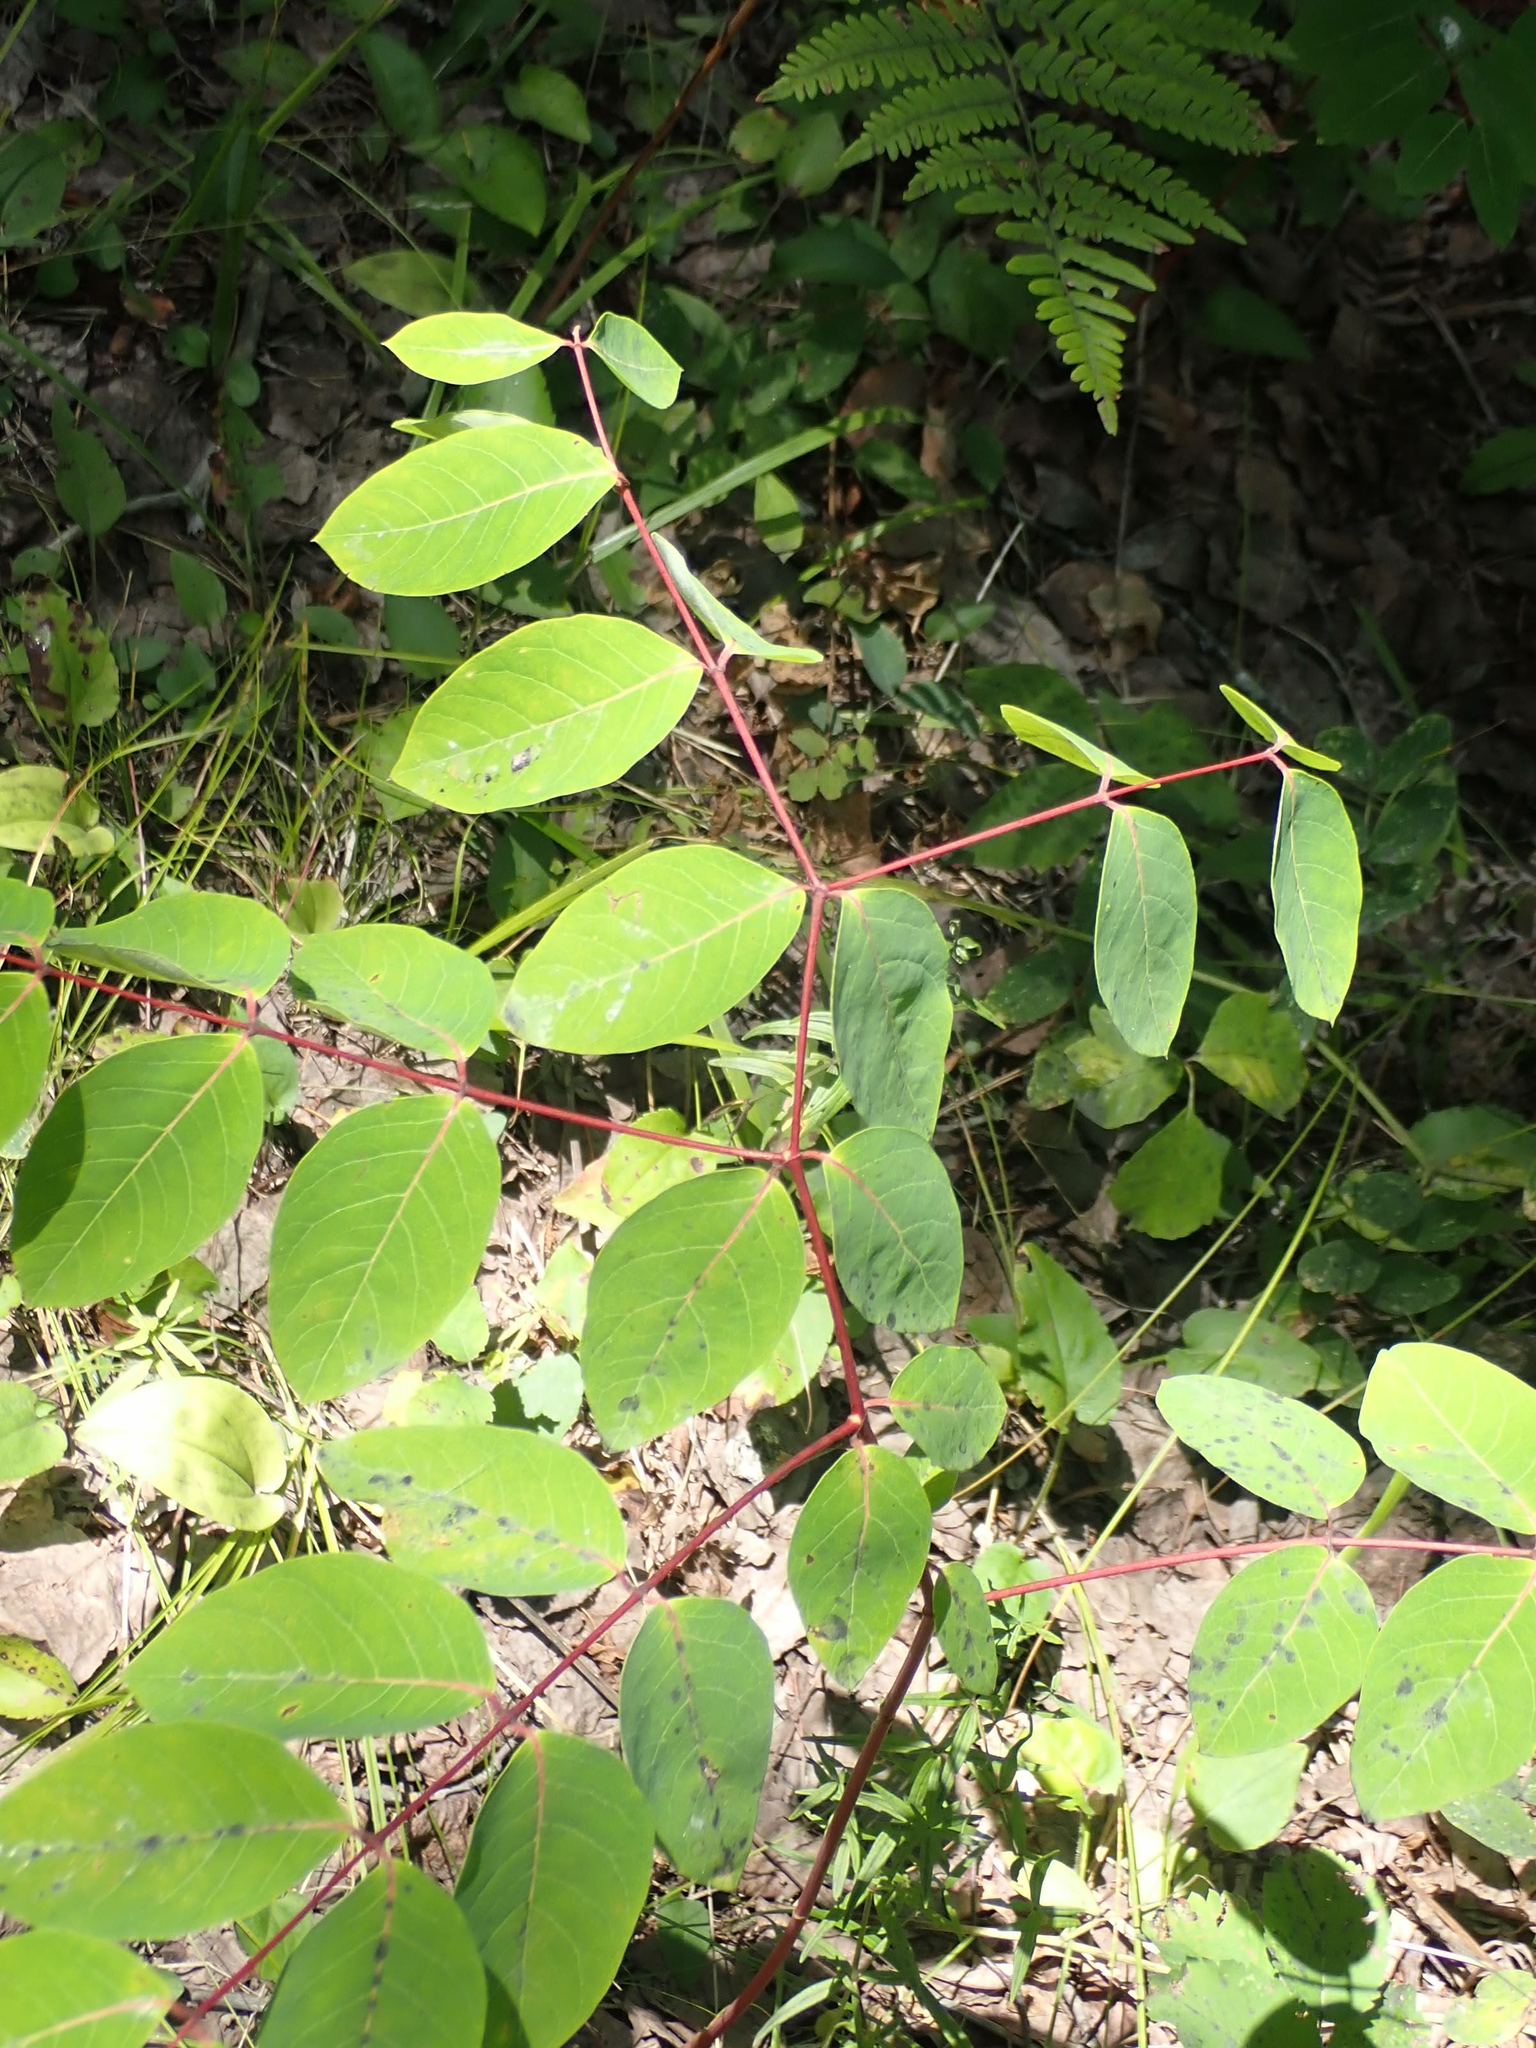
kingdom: Plantae
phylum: Tracheophyta
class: Magnoliopsida
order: Gentianales
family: Apocynaceae
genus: Apocynum
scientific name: Apocynum androsaemifolium
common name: Spreading dogbane
